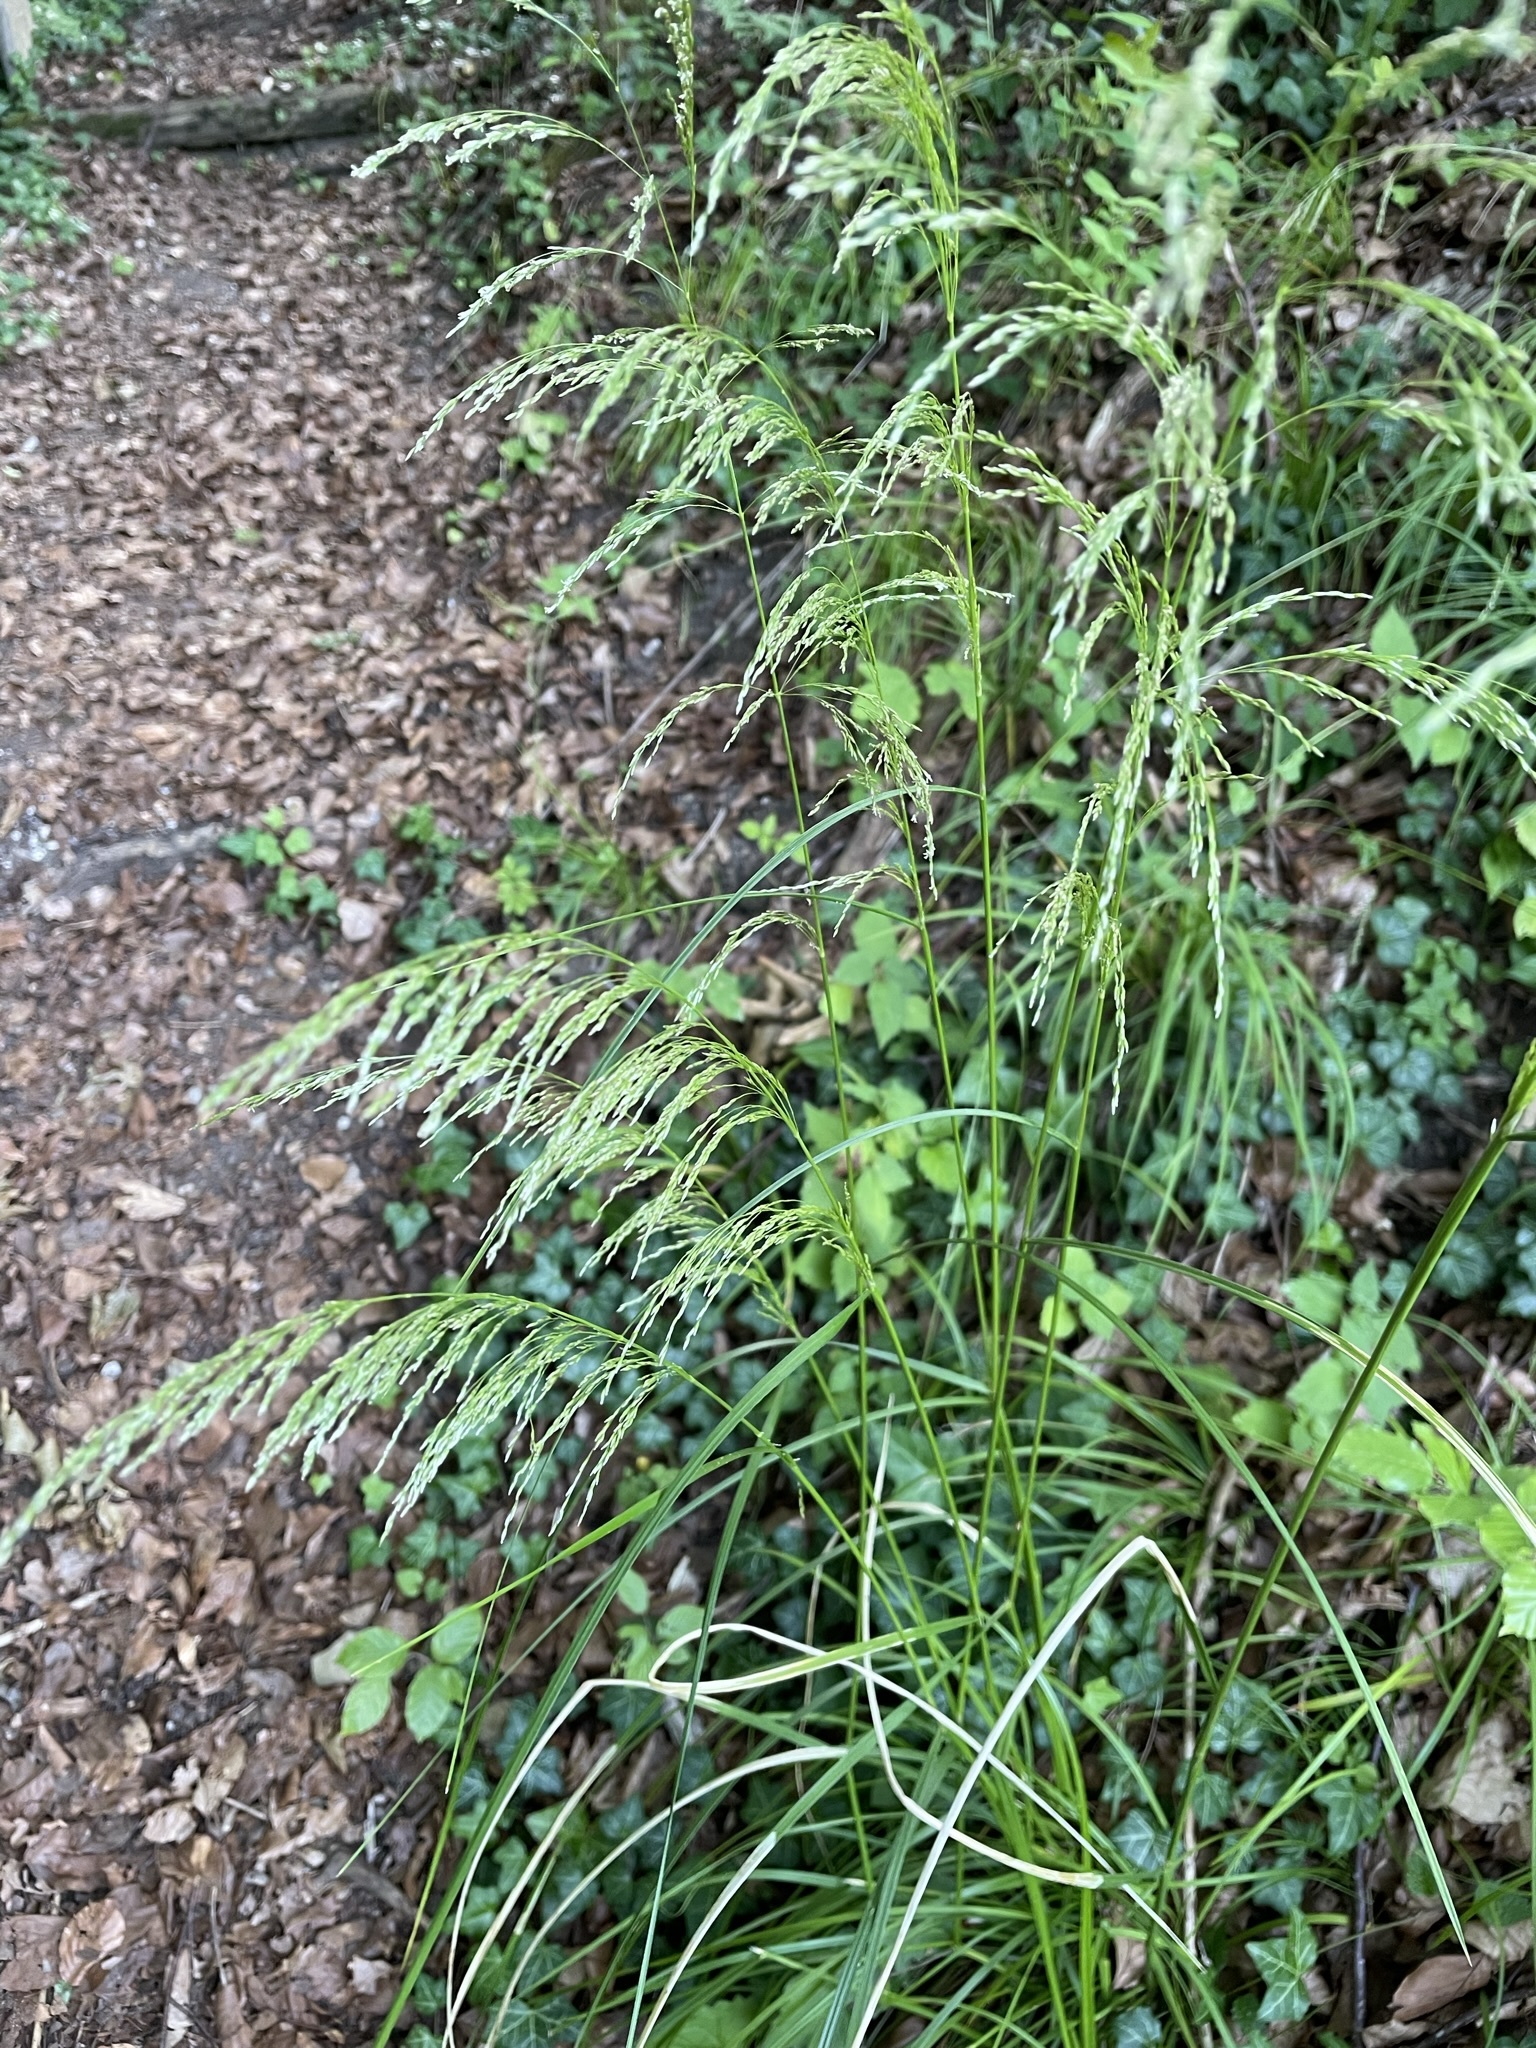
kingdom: Plantae
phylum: Tracheophyta
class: Liliopsida
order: Poales
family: Poaceae
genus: Deschampsia
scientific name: Deschampsia cespitosa
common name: Tufted hair-grass
